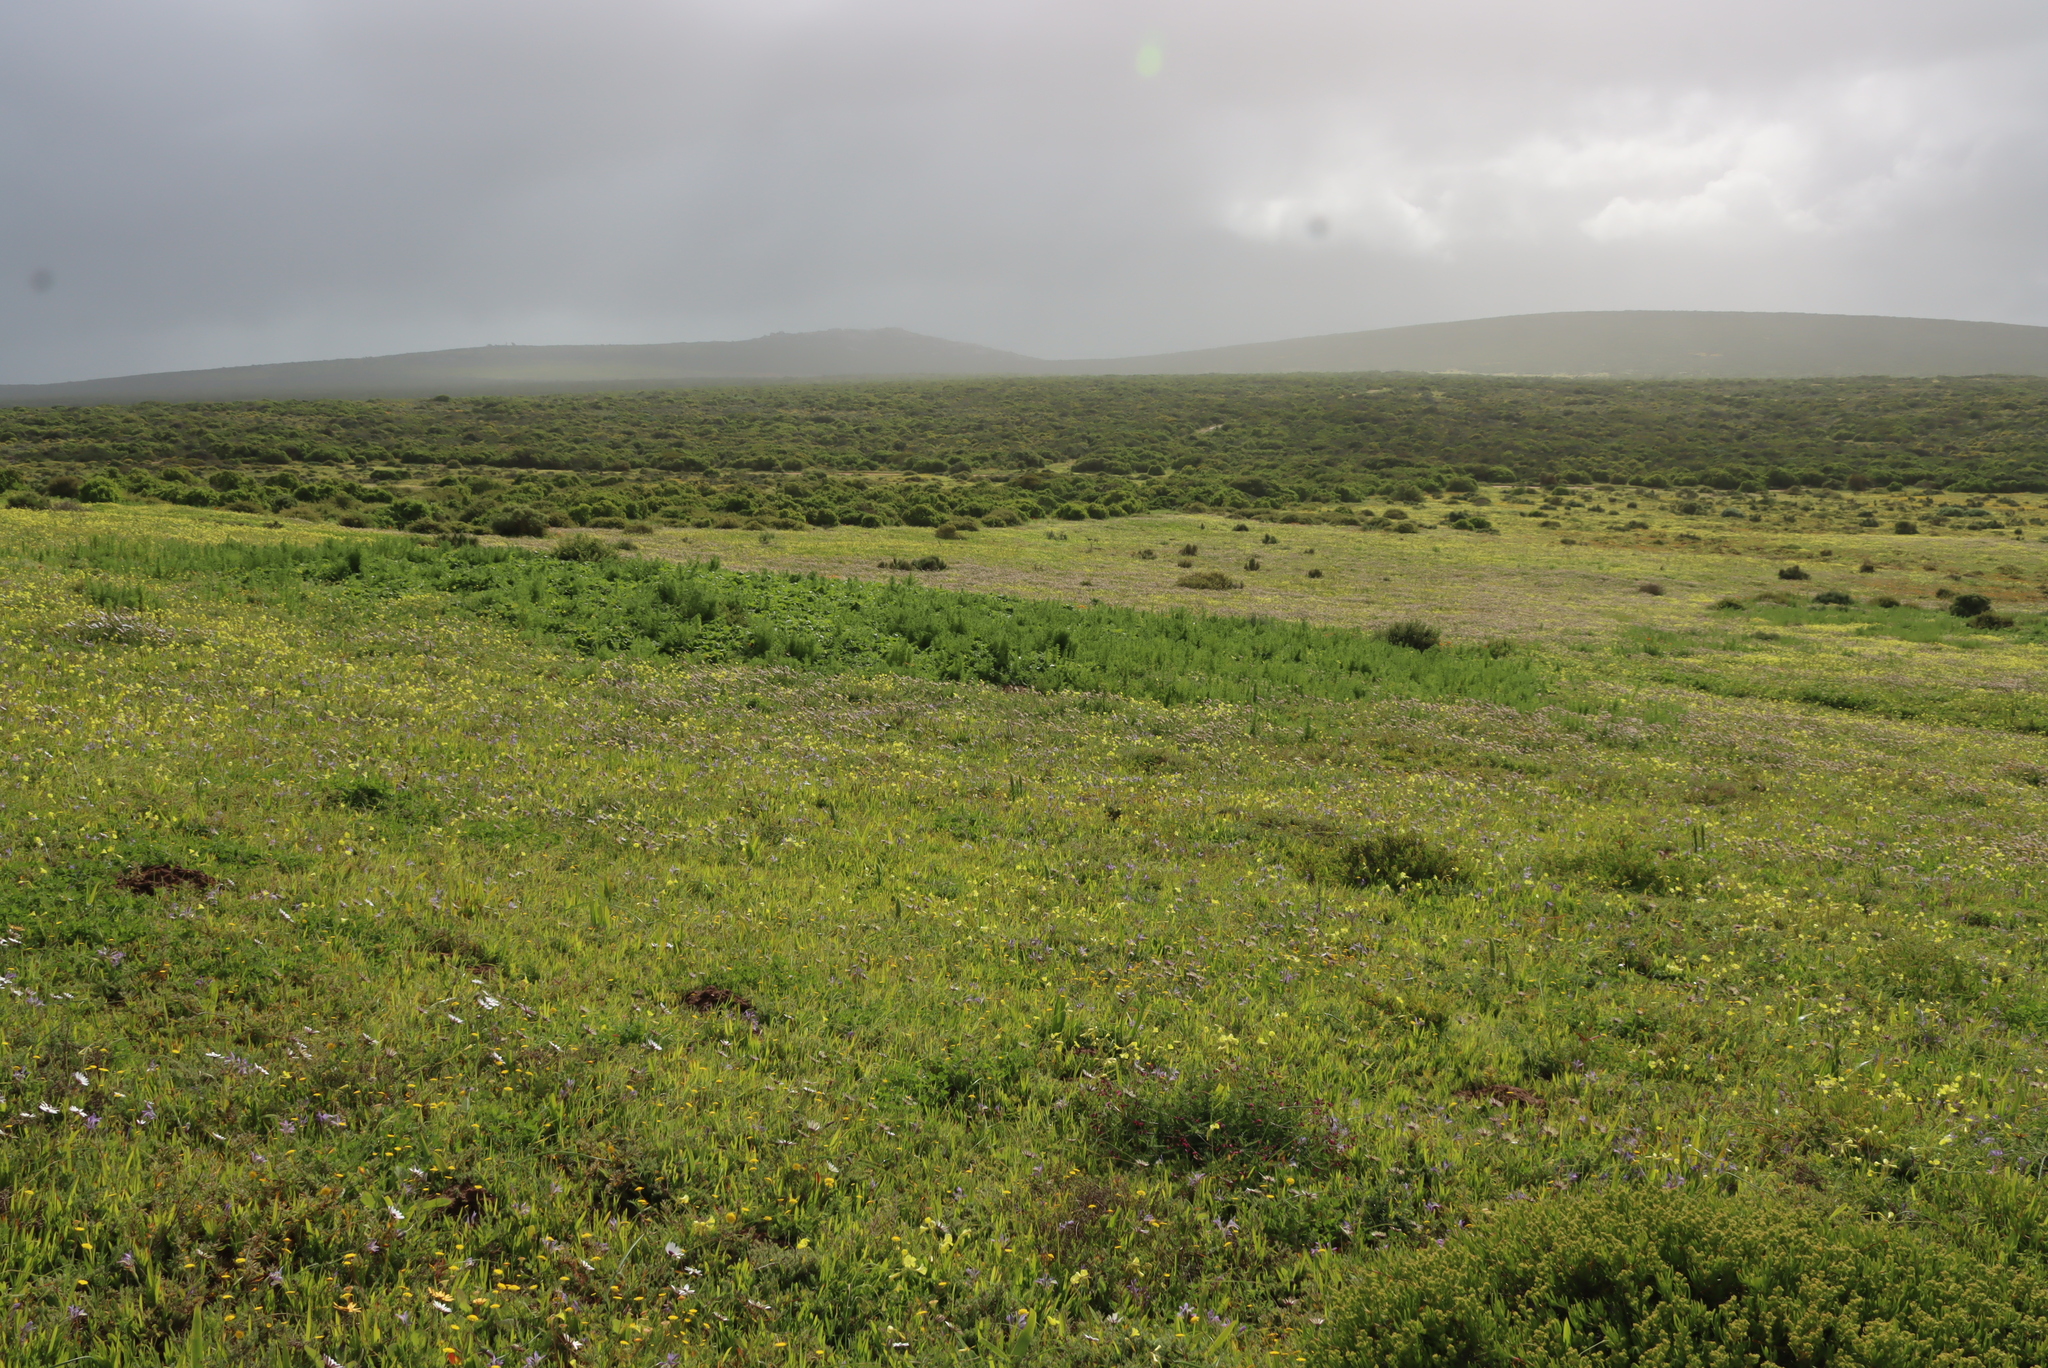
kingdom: Plantae
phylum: Tracheophyta
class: Magnoliopsida
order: Oxalidales
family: Oxalidaceae
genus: Oxalis
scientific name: Oxalis pes-caprae
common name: Bermuda-buttercup
